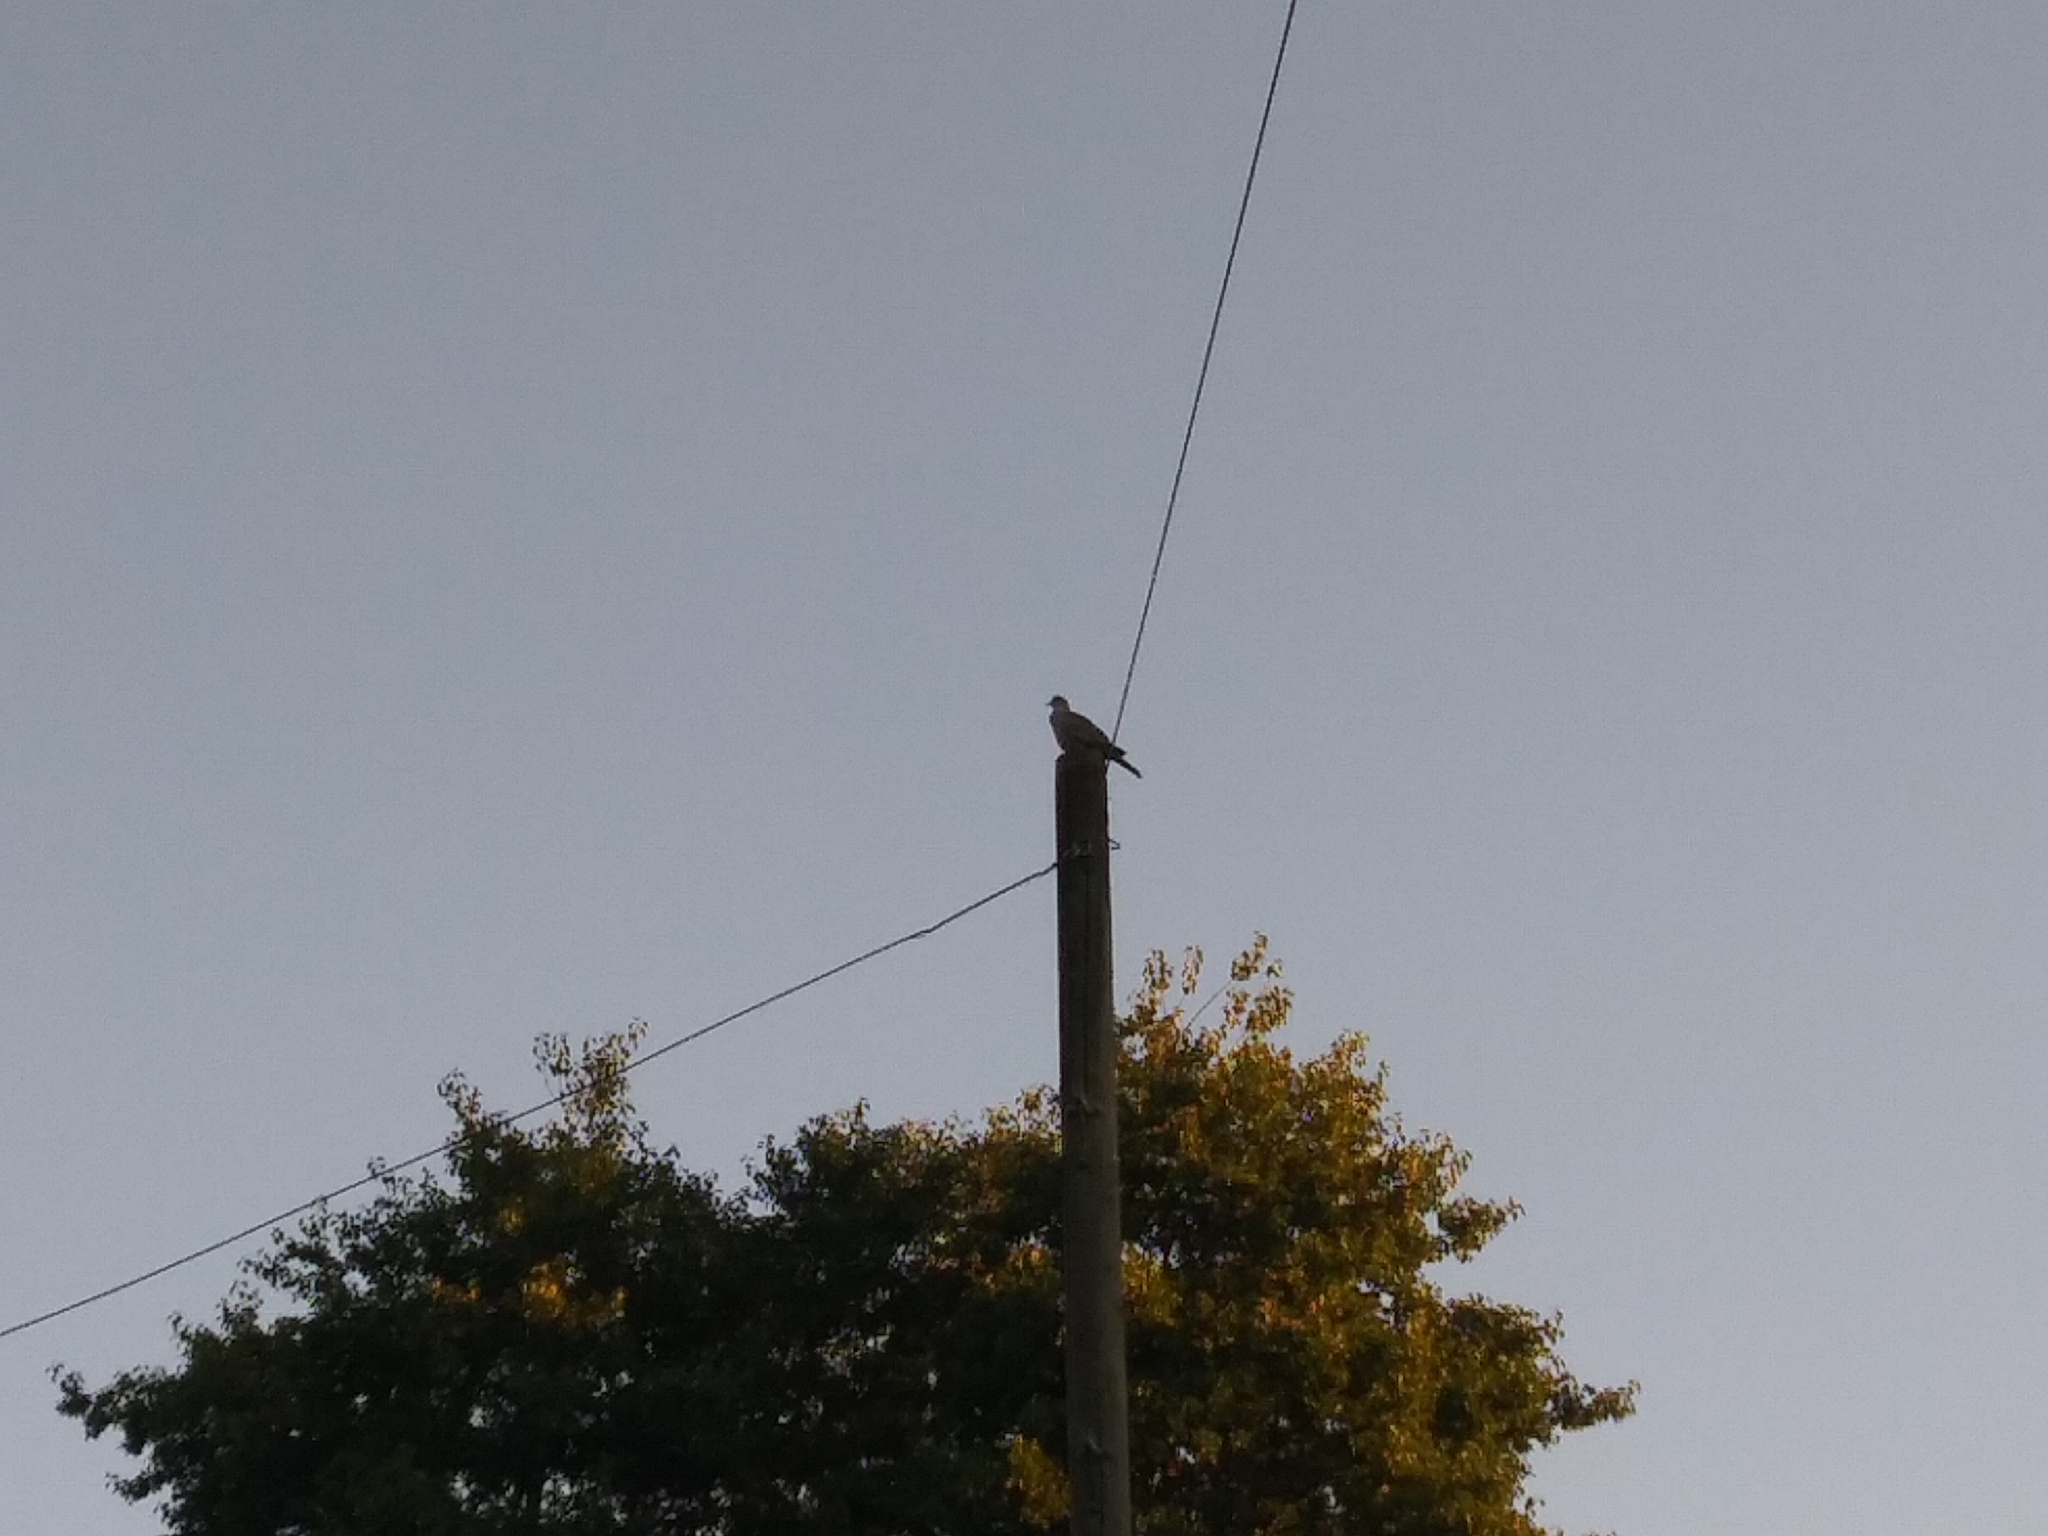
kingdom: Animalia
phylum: Chordata
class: Aves
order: Columbiformes
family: Columbidae
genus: Streptopelia
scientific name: Streptopelia decaocto
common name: Eurasian collared dove
